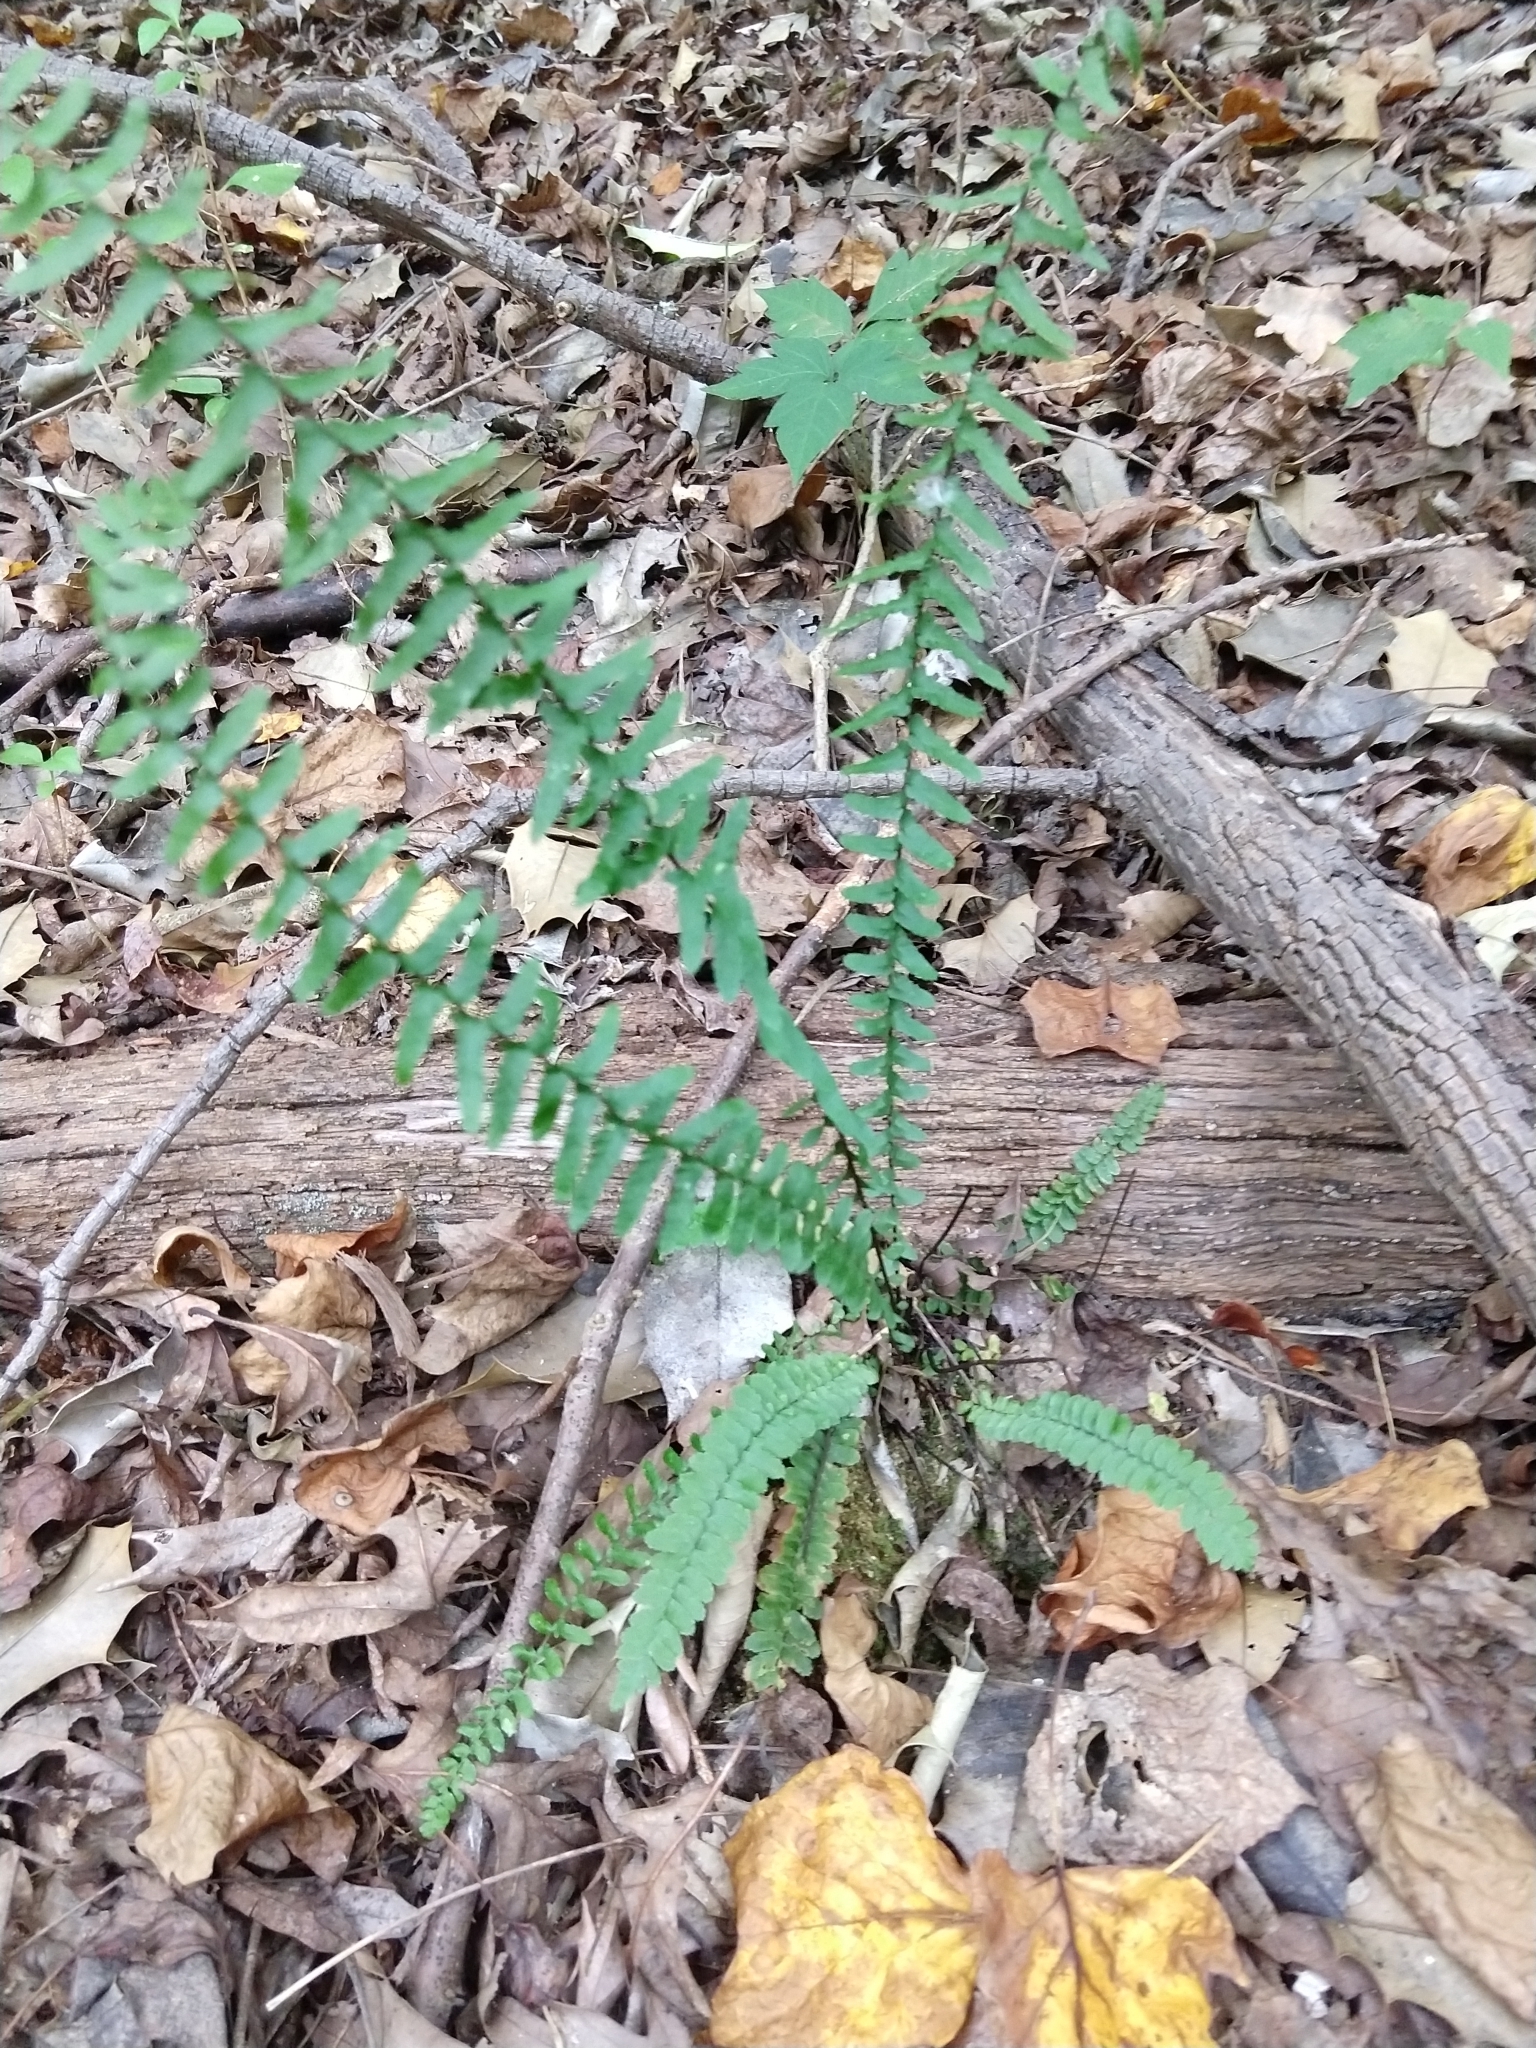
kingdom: Plantae
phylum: Tracheophyta
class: Polypodiopsida
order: Polypodiales
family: Aspleniaceae
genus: Asplenium
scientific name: Asplenium platyneuron
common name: Ebony spleenwort
